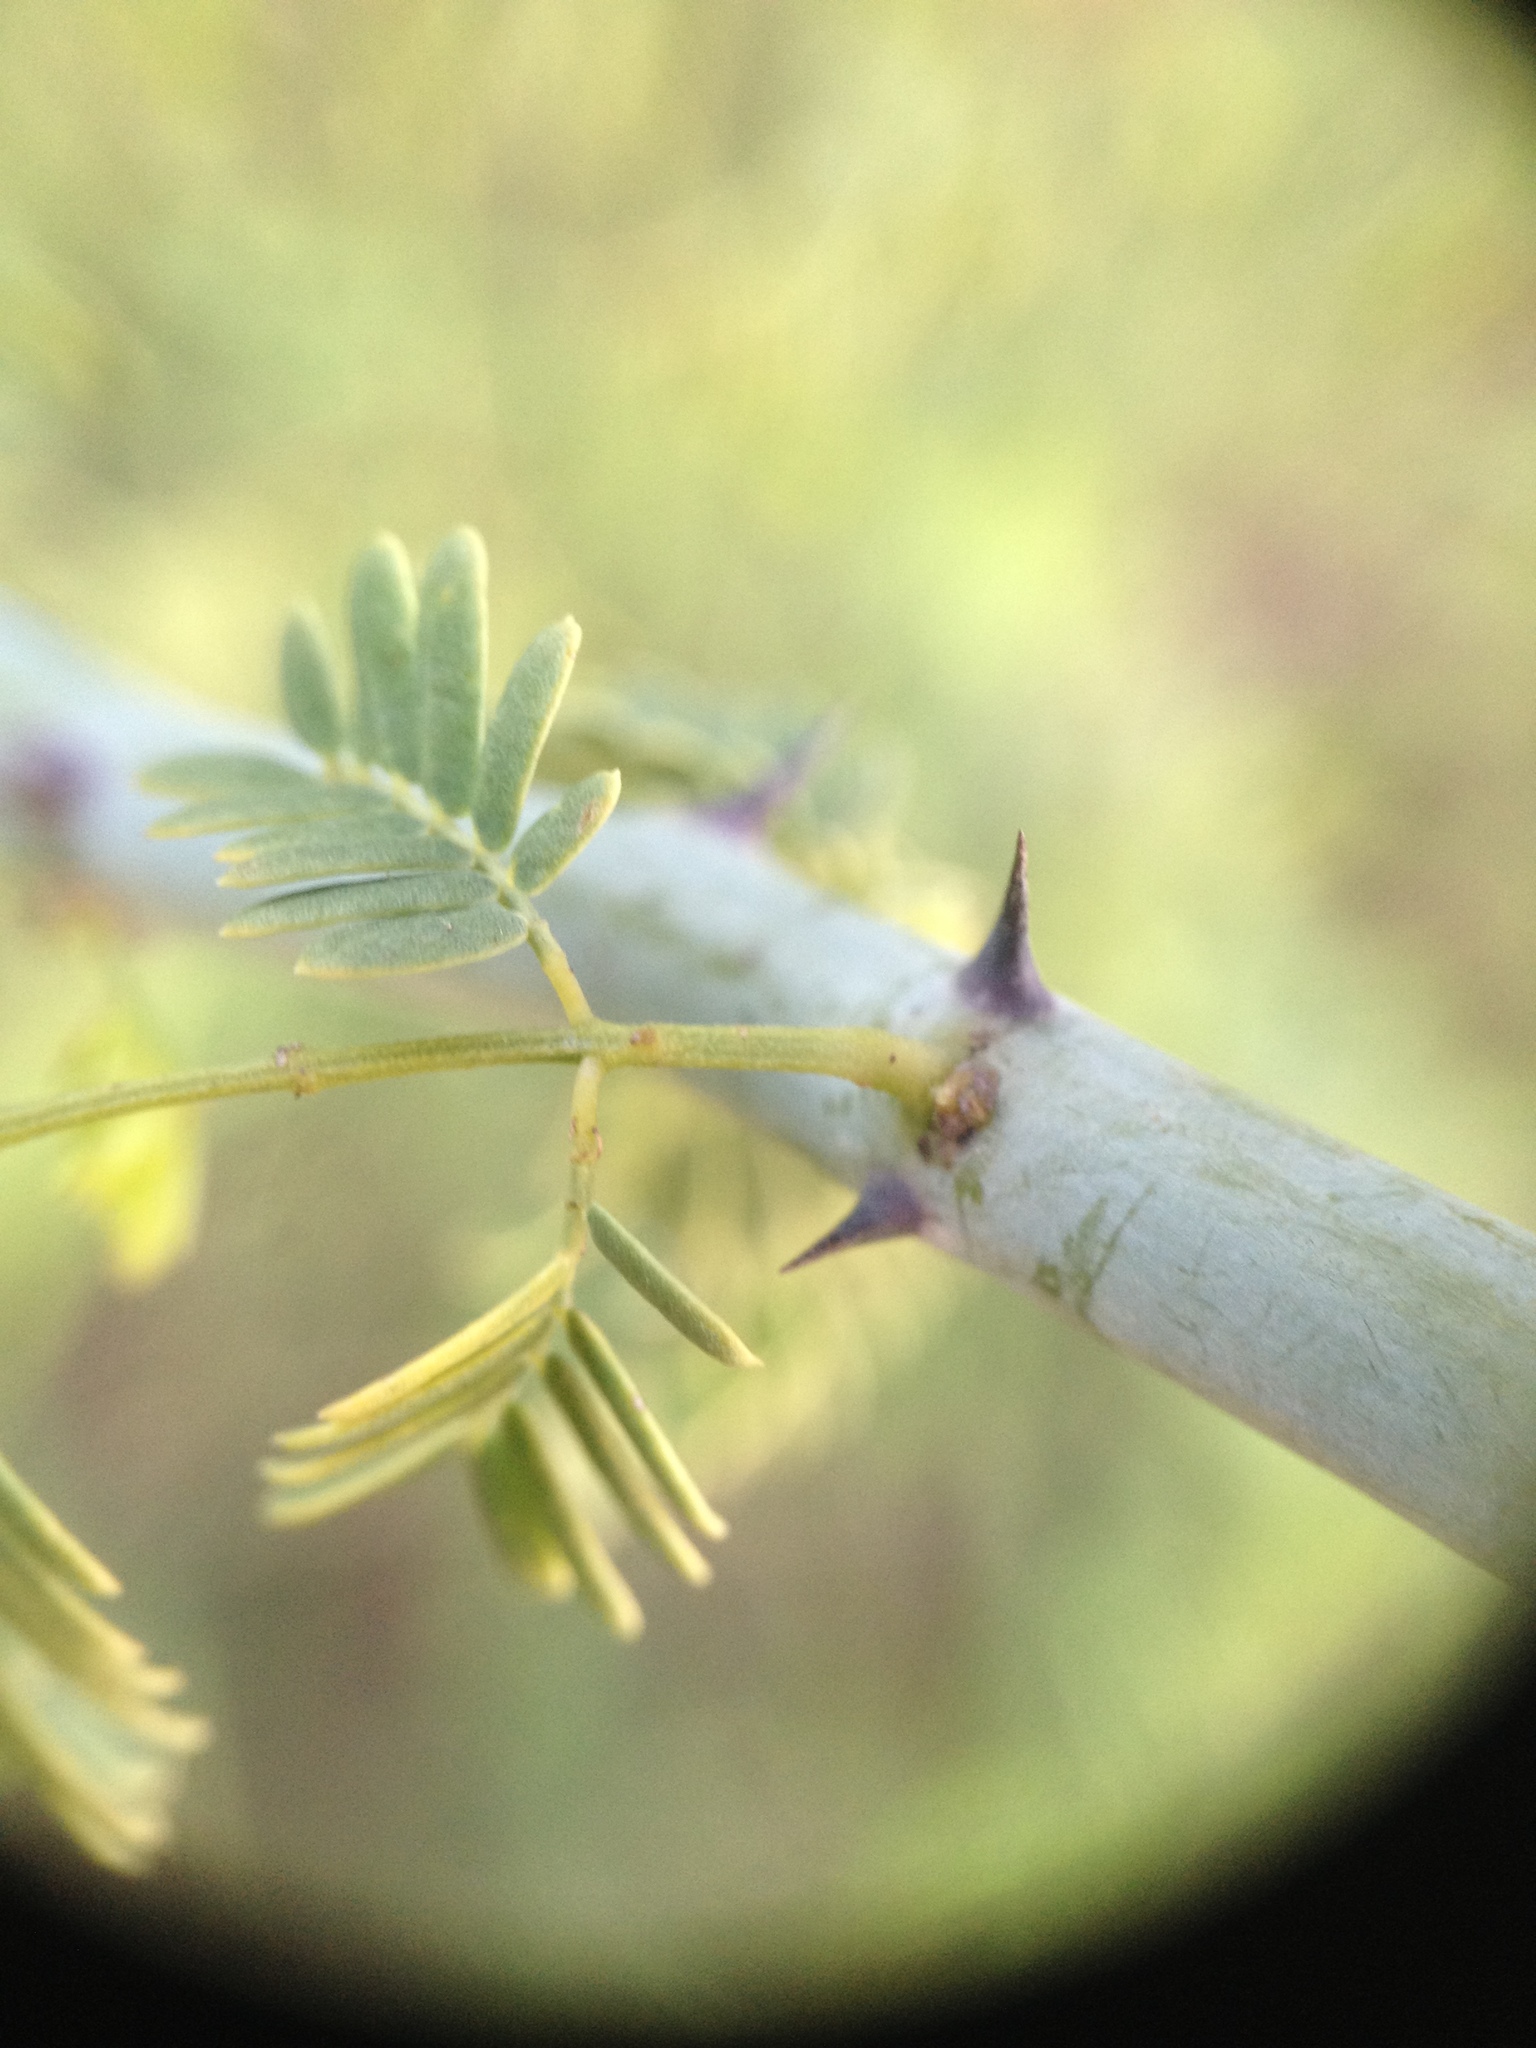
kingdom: Plantae
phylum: Tracheophyta
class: Magnoliopsida
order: Fabales
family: Fabaceae
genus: Senegalia
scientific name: Senegalia emilioana
